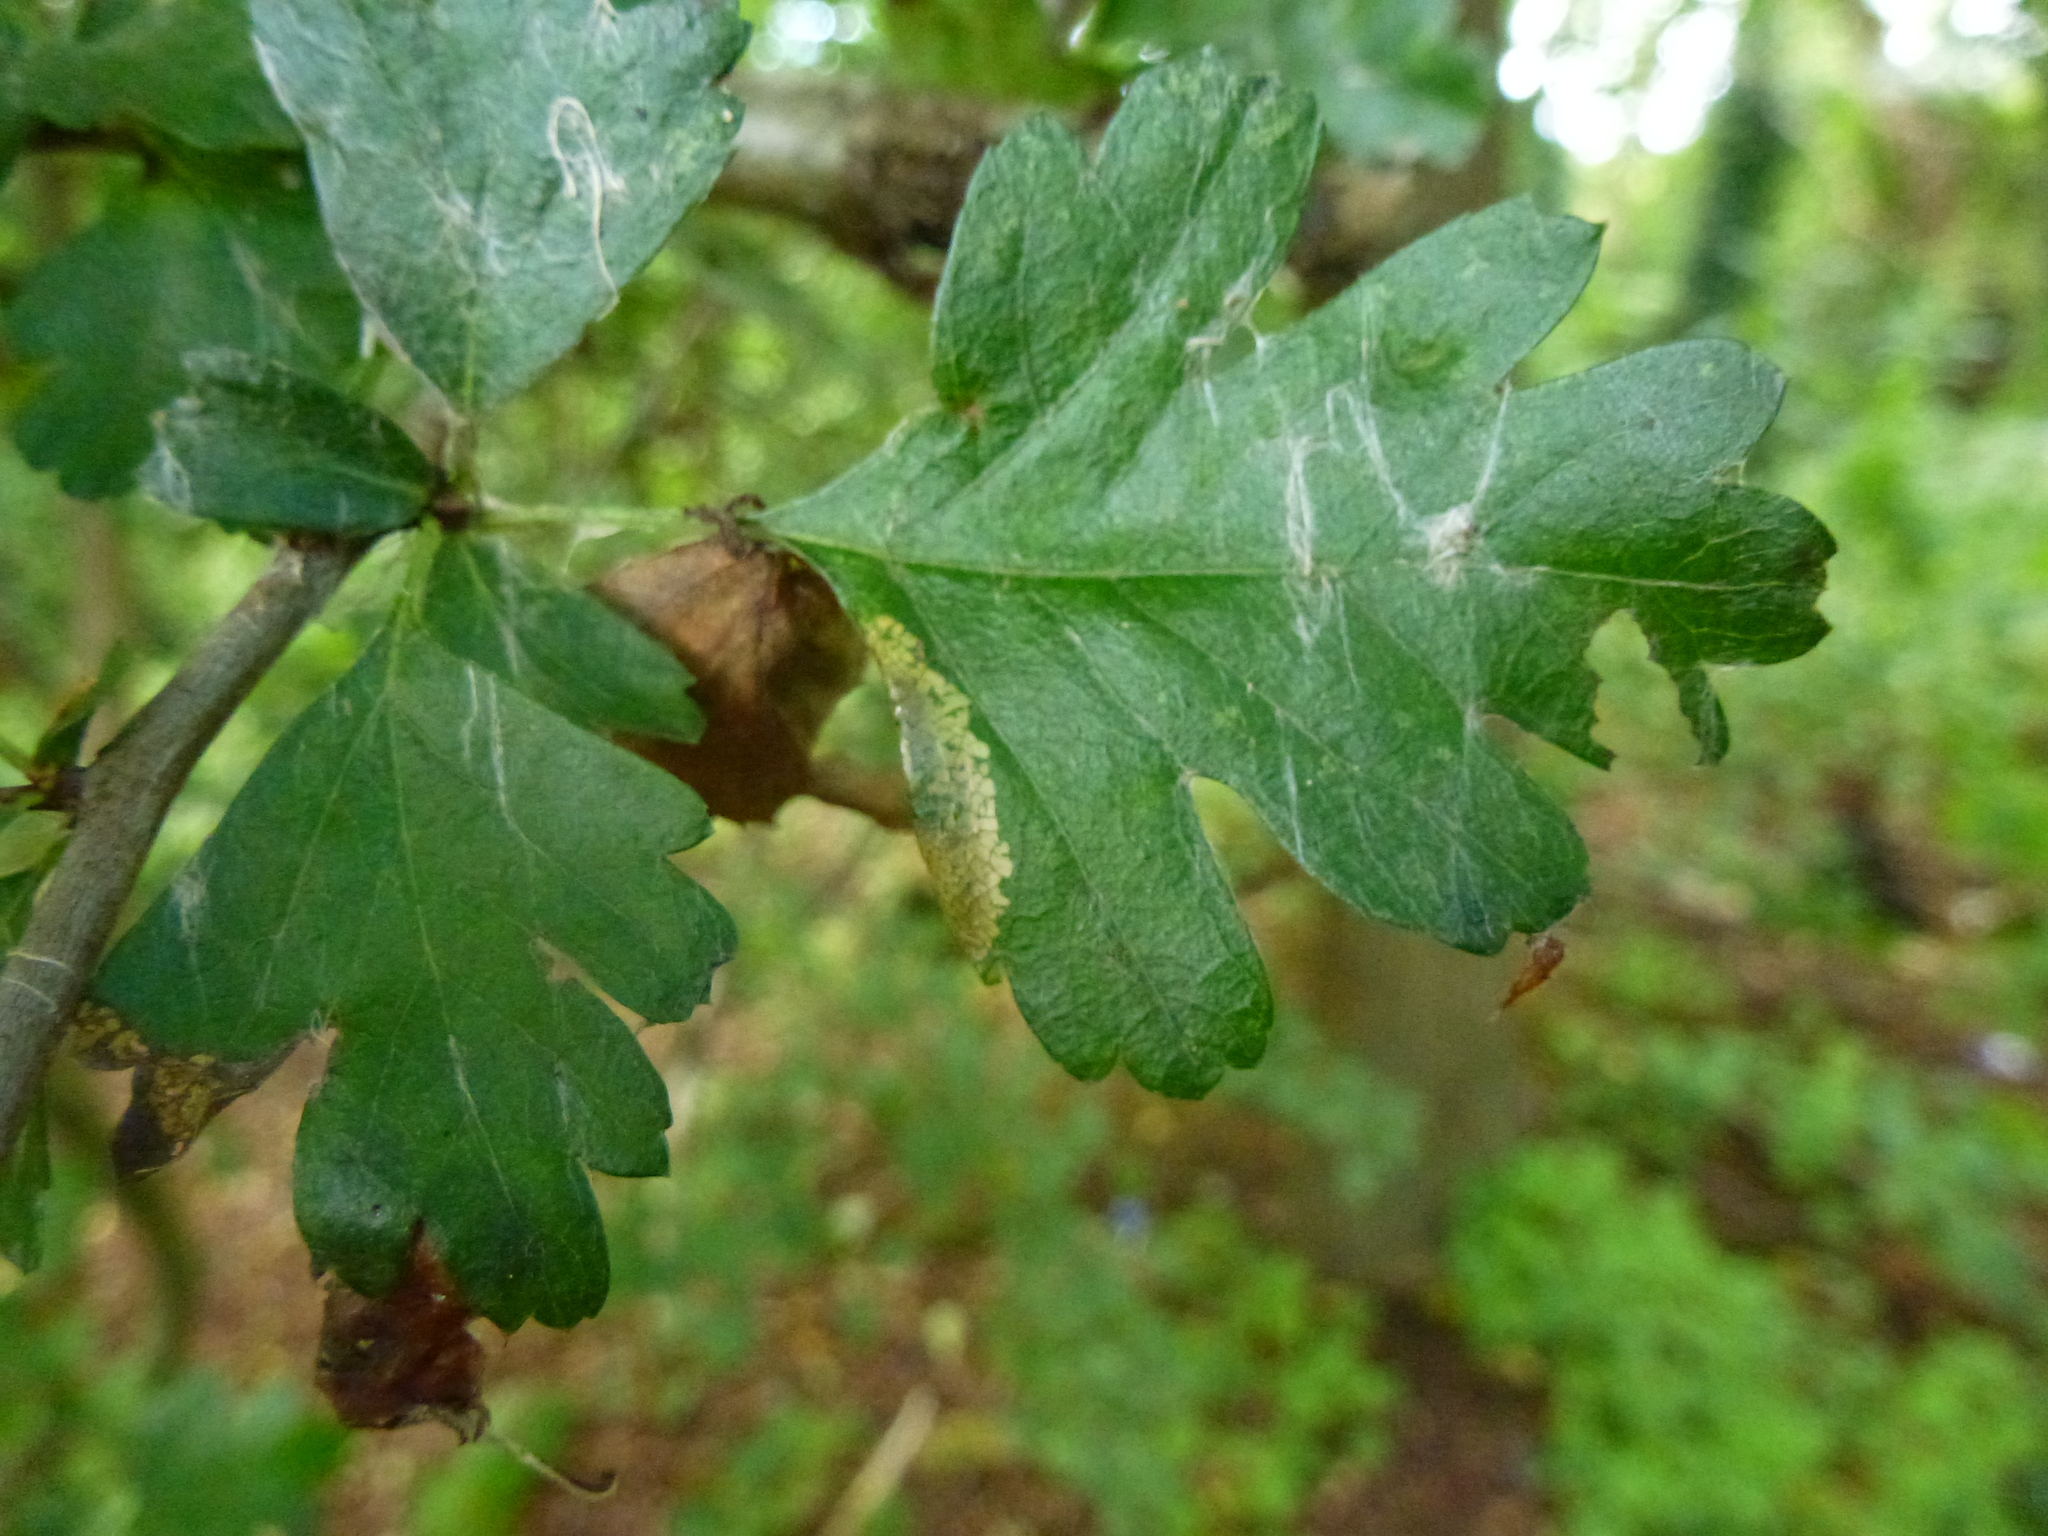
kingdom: Animalia
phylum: Arthropoda
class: Insecta
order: Lepidoptera
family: Gracillariidae
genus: Phyllonorycter
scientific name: Phyllonorycter oxyacanthae
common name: Common thorn midget
